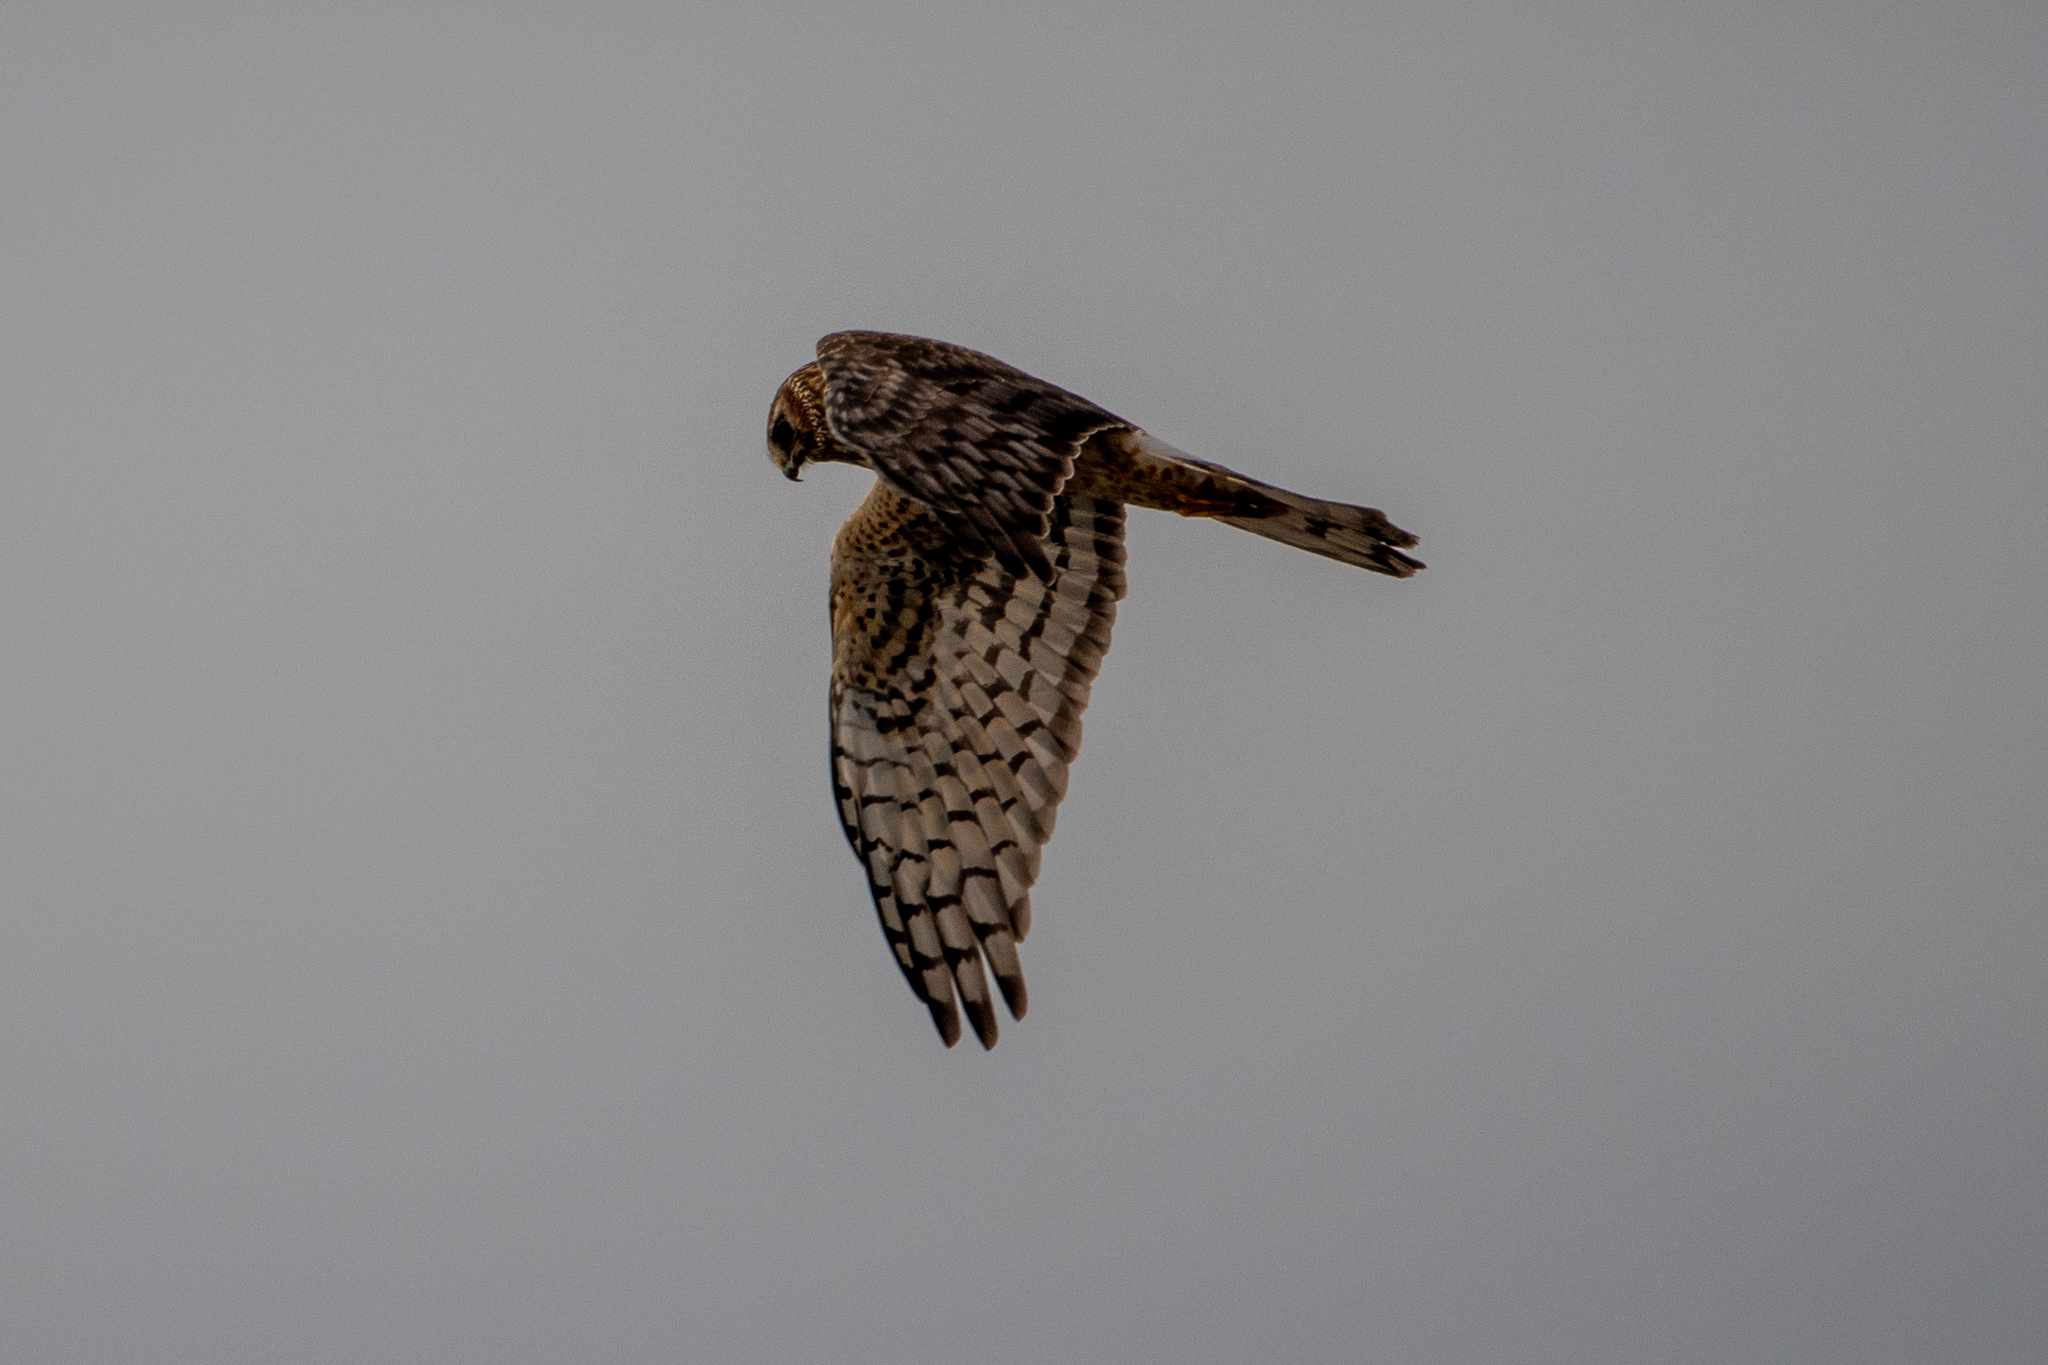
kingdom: Animalia
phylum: Chordata
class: Aves
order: Accipitriformes
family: Accipitridae
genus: Circus
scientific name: Circus cyaneus
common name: Hen harrier
